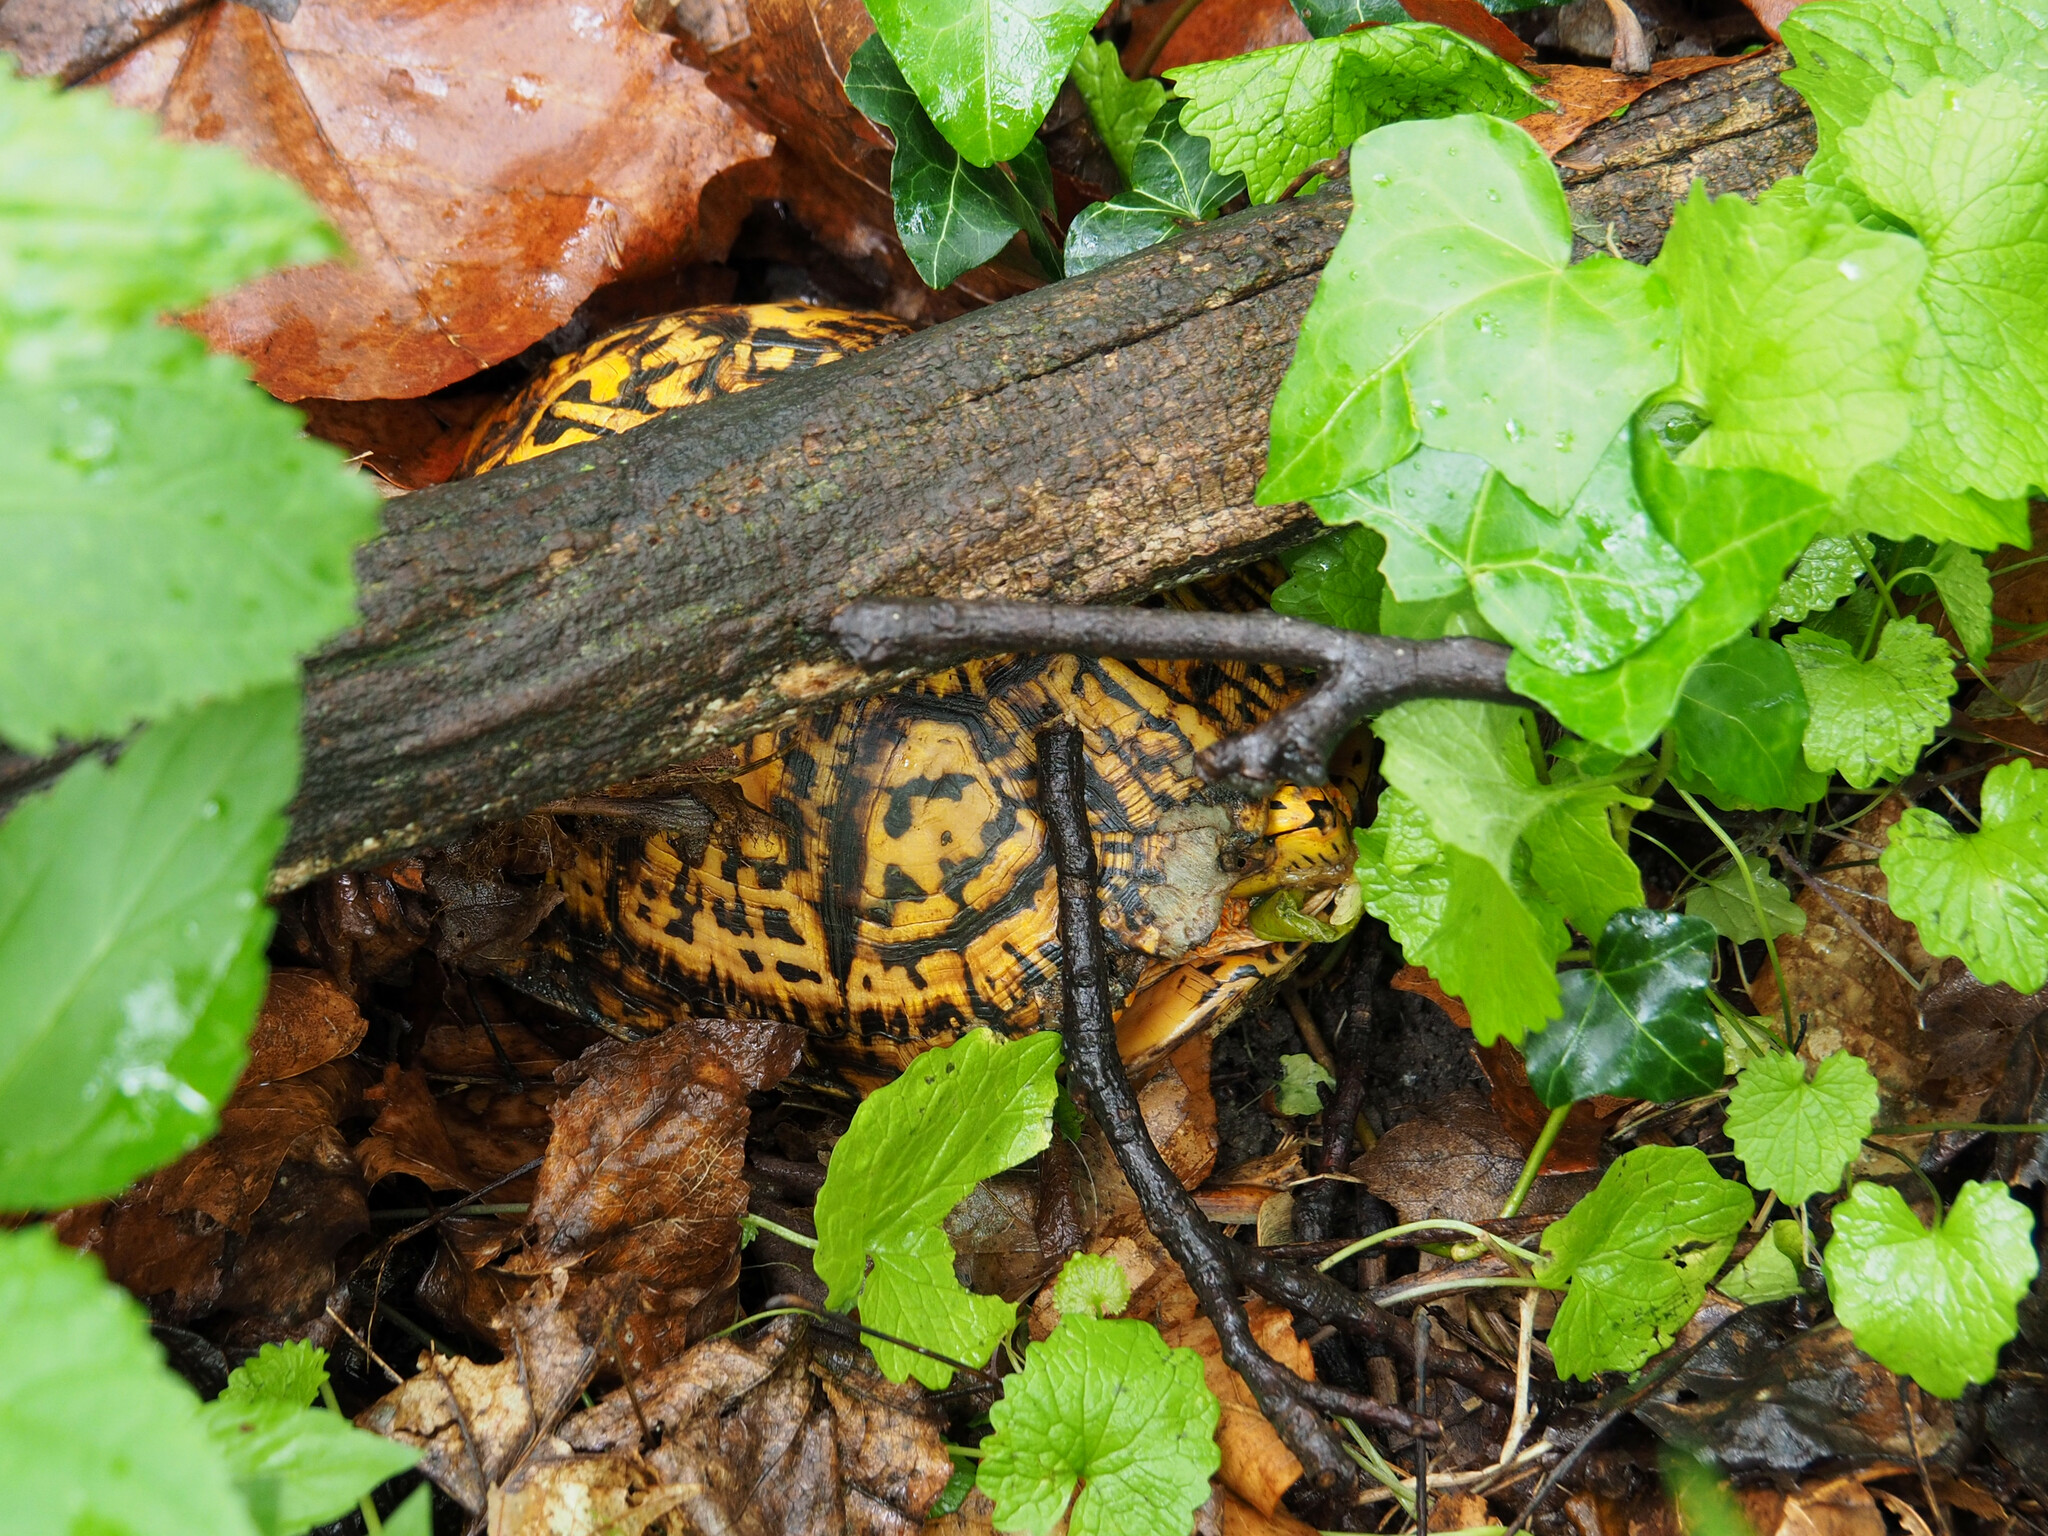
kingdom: Animalia
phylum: Chordata
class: Testudines
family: Emydidae
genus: Terrapene
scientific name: Terrapene carolina
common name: Common box turtle
